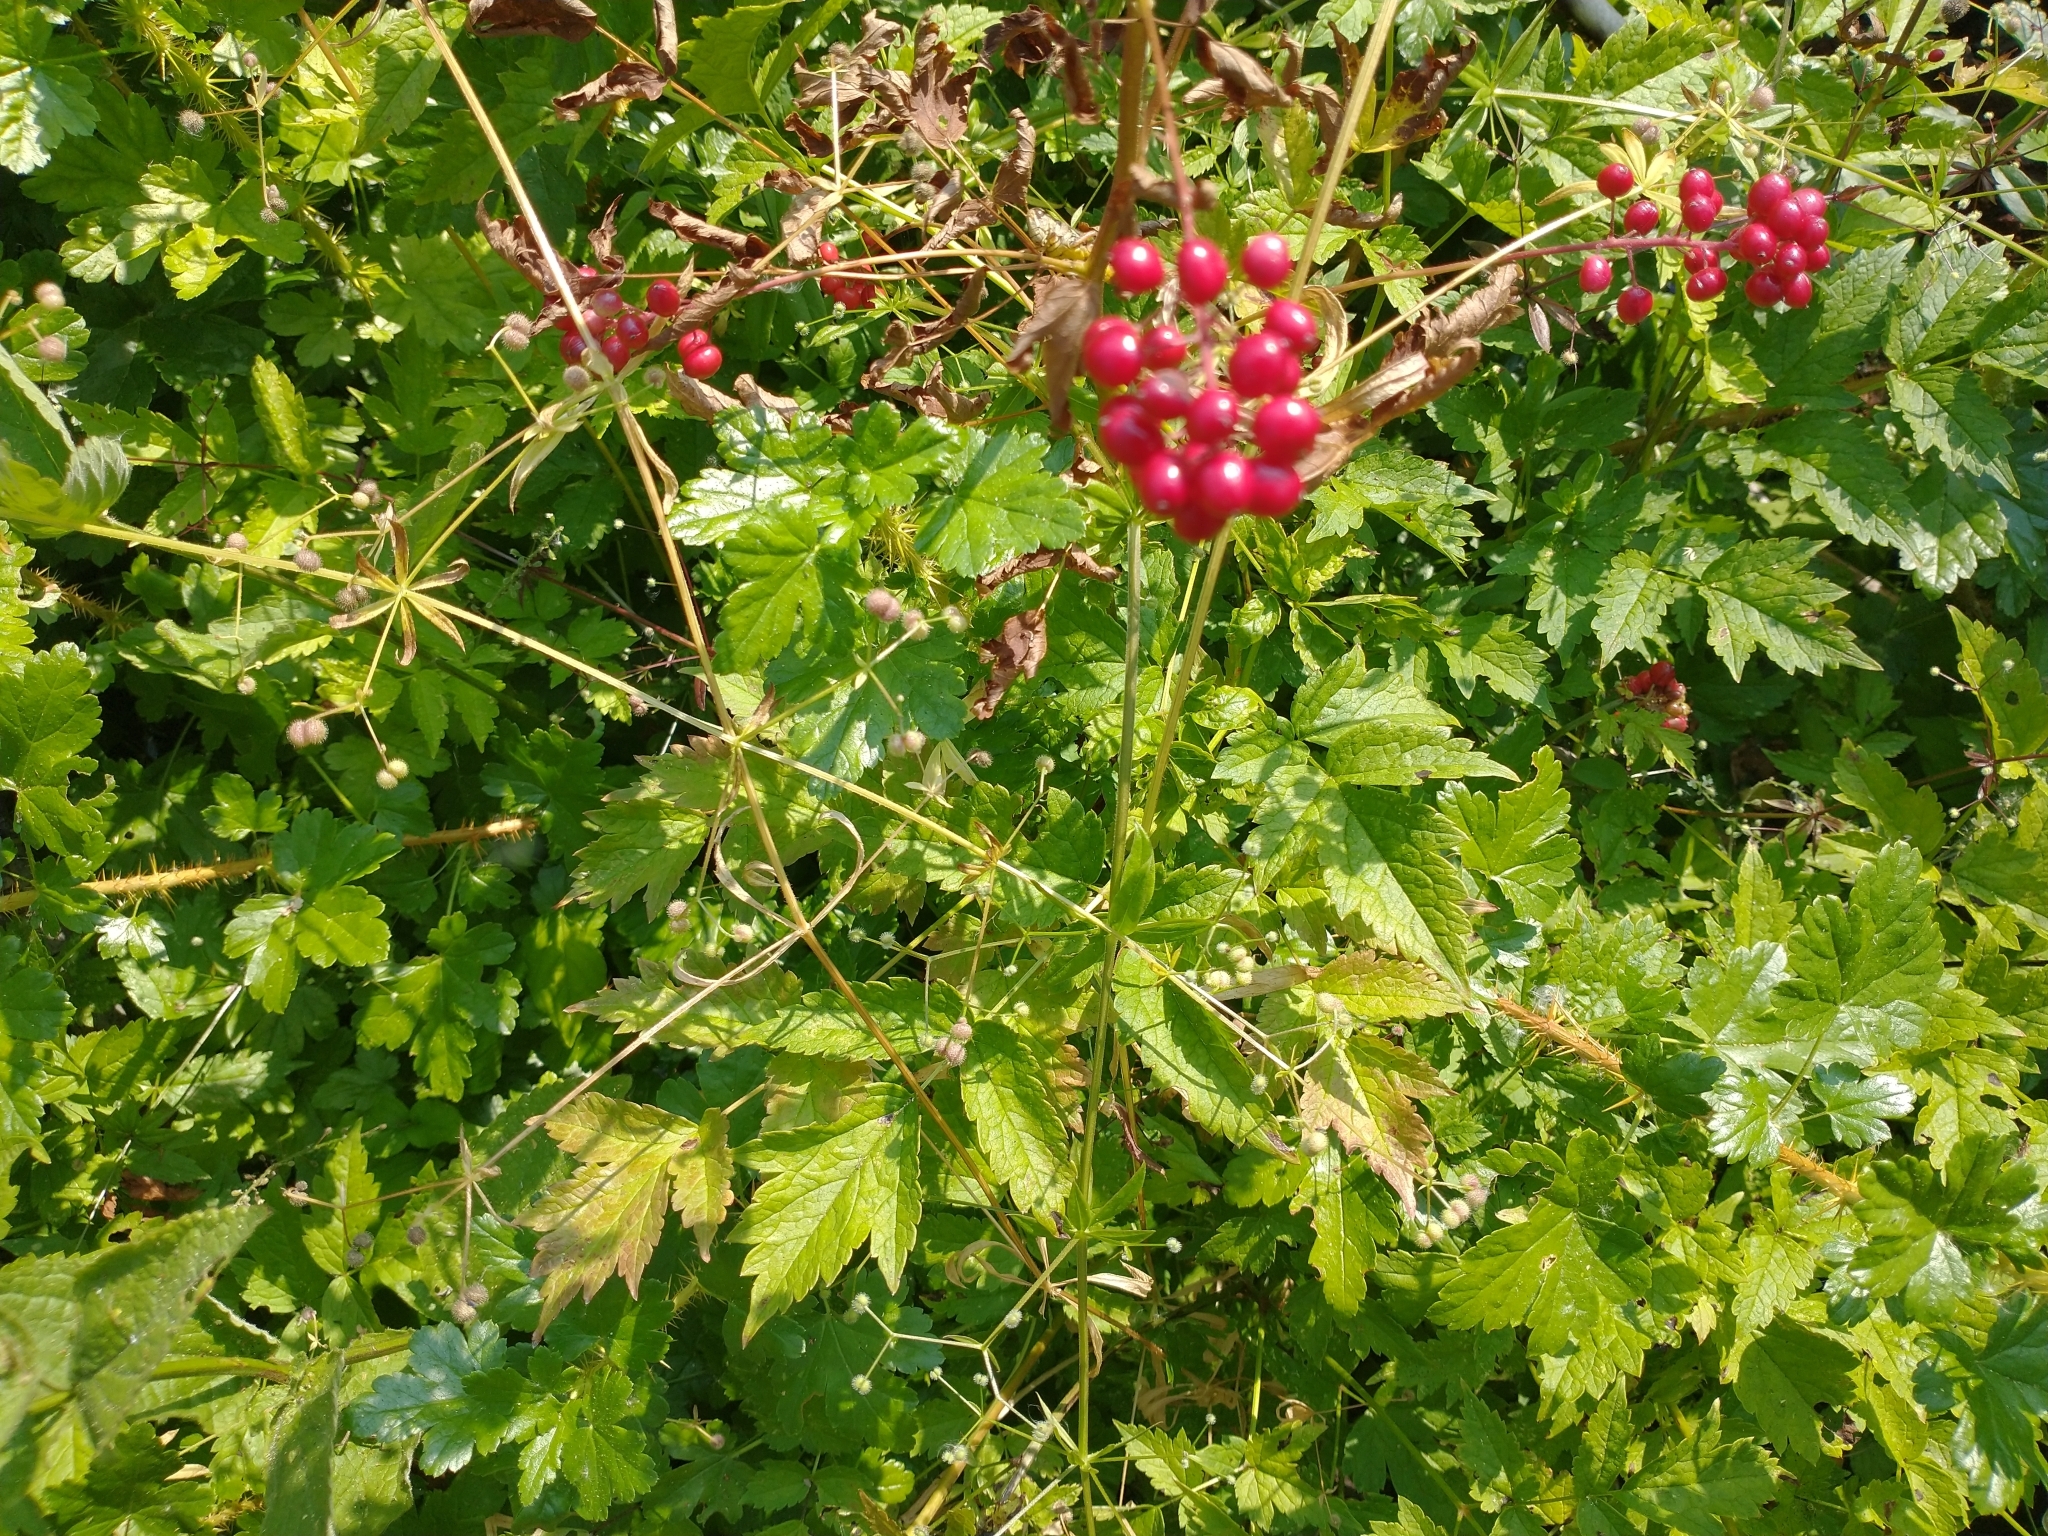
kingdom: Plantae
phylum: Tracheophyta
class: Magnoliopsida
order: Ranunculales
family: Ranunculaceae
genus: Actaea
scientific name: Actaea rubra
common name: Red baneberry
